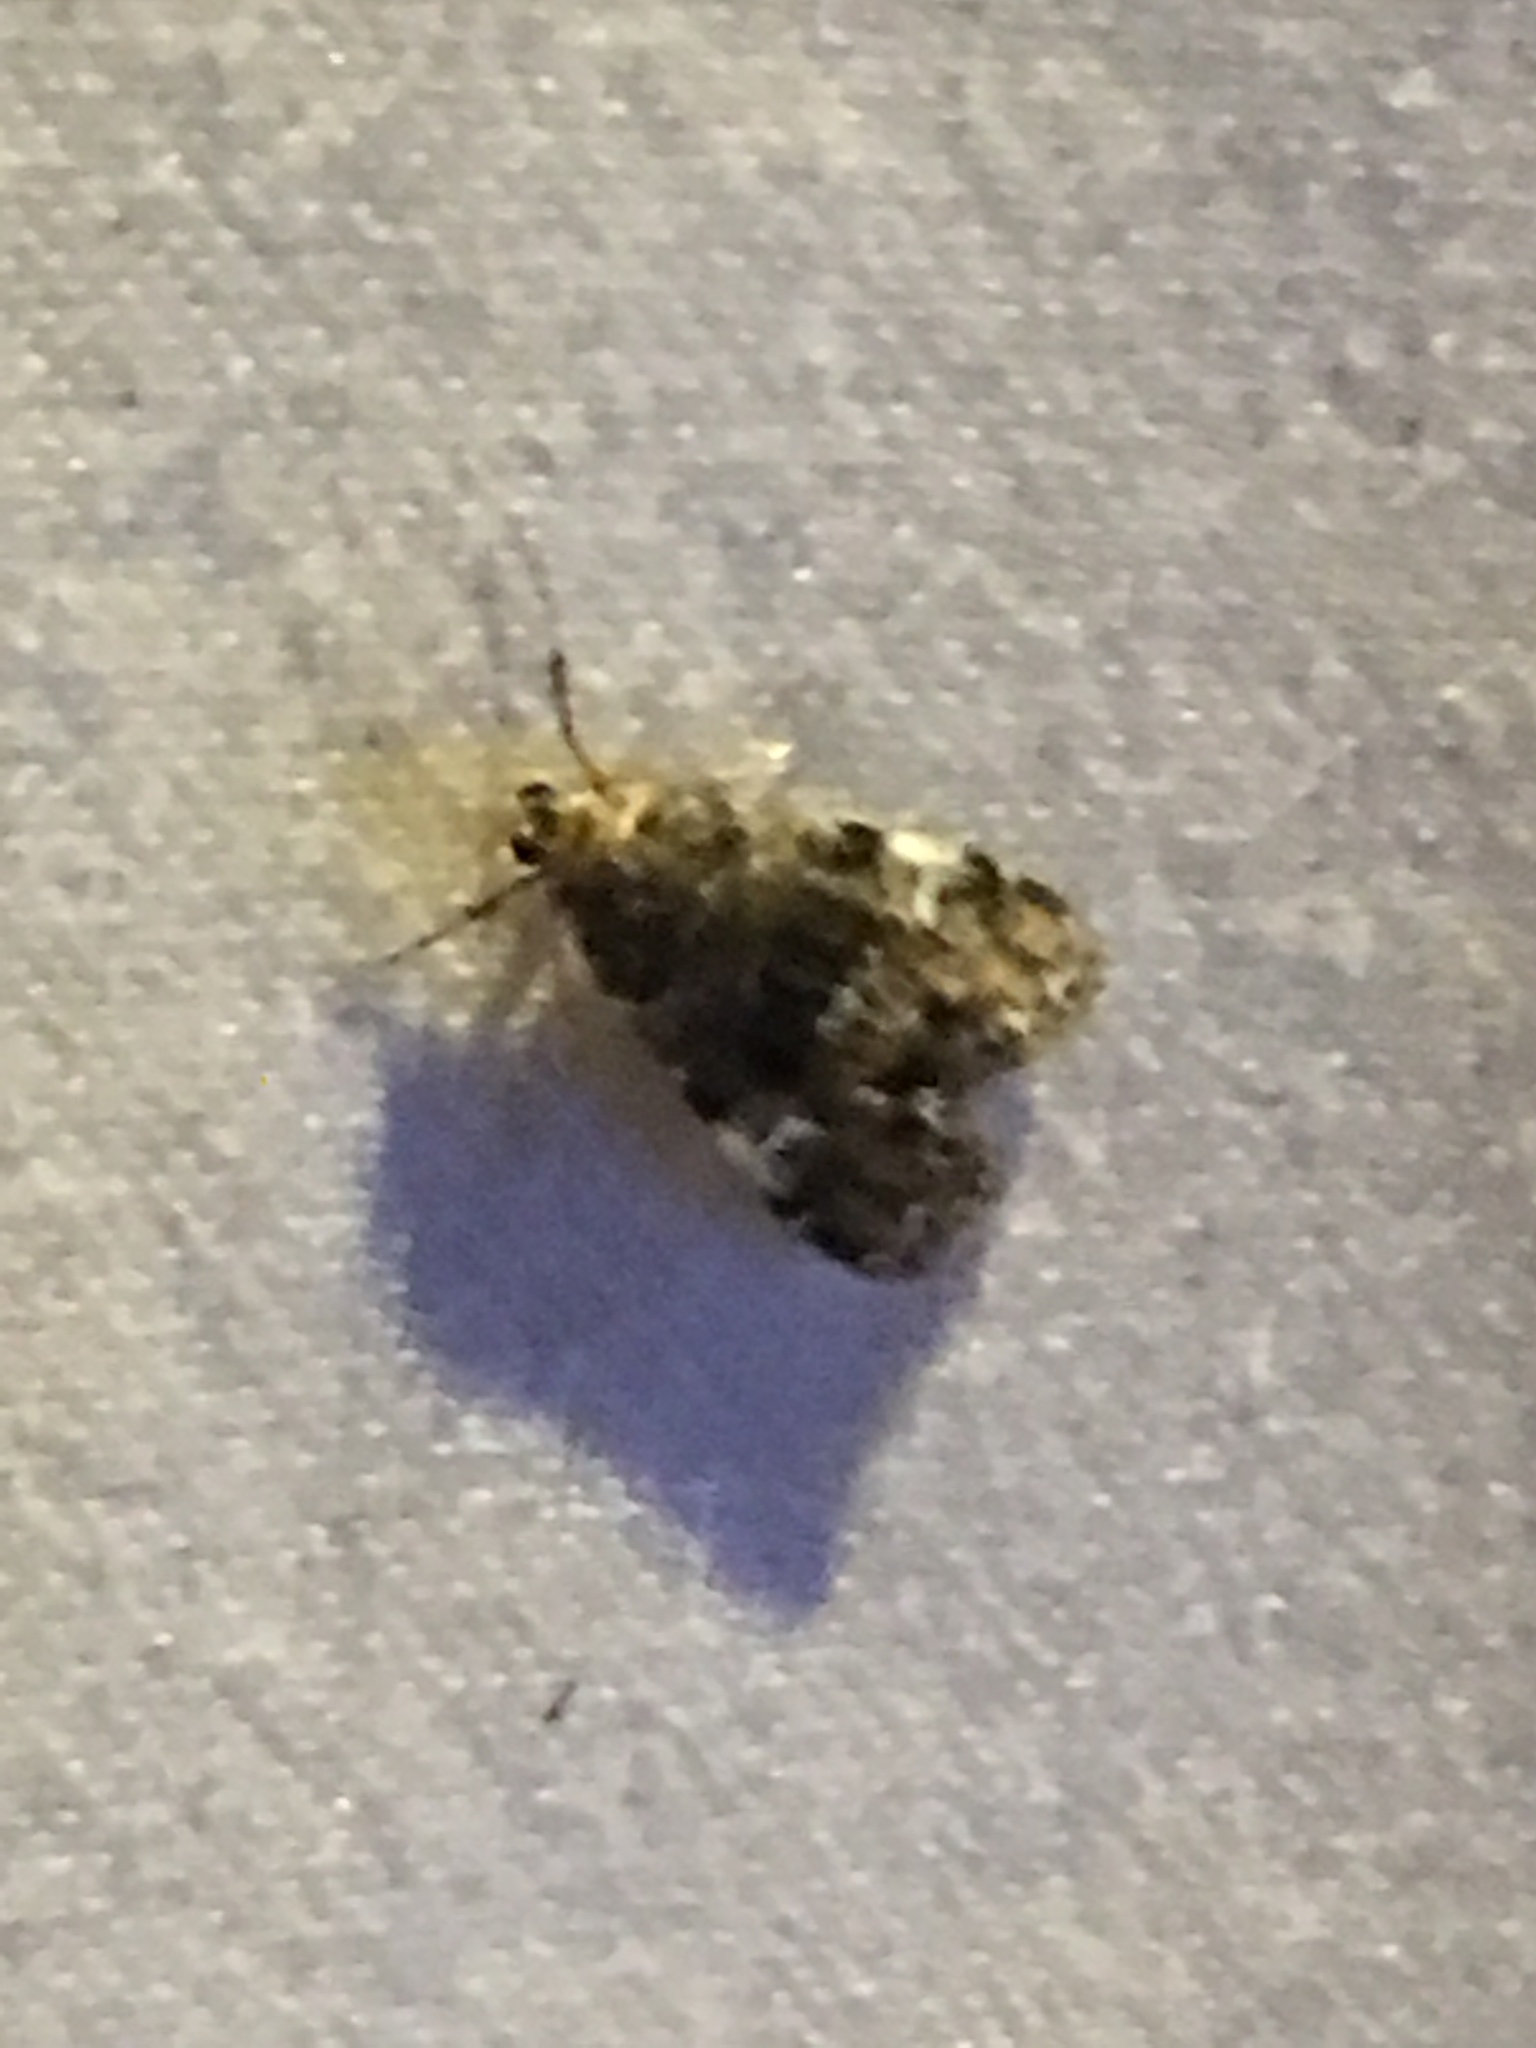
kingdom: Animalia
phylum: Arthropoda
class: Insecta
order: Lepidoptera
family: Crambidae
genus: Elophila
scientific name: Elophila obliteralis
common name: Waterlily leafcutter moth
